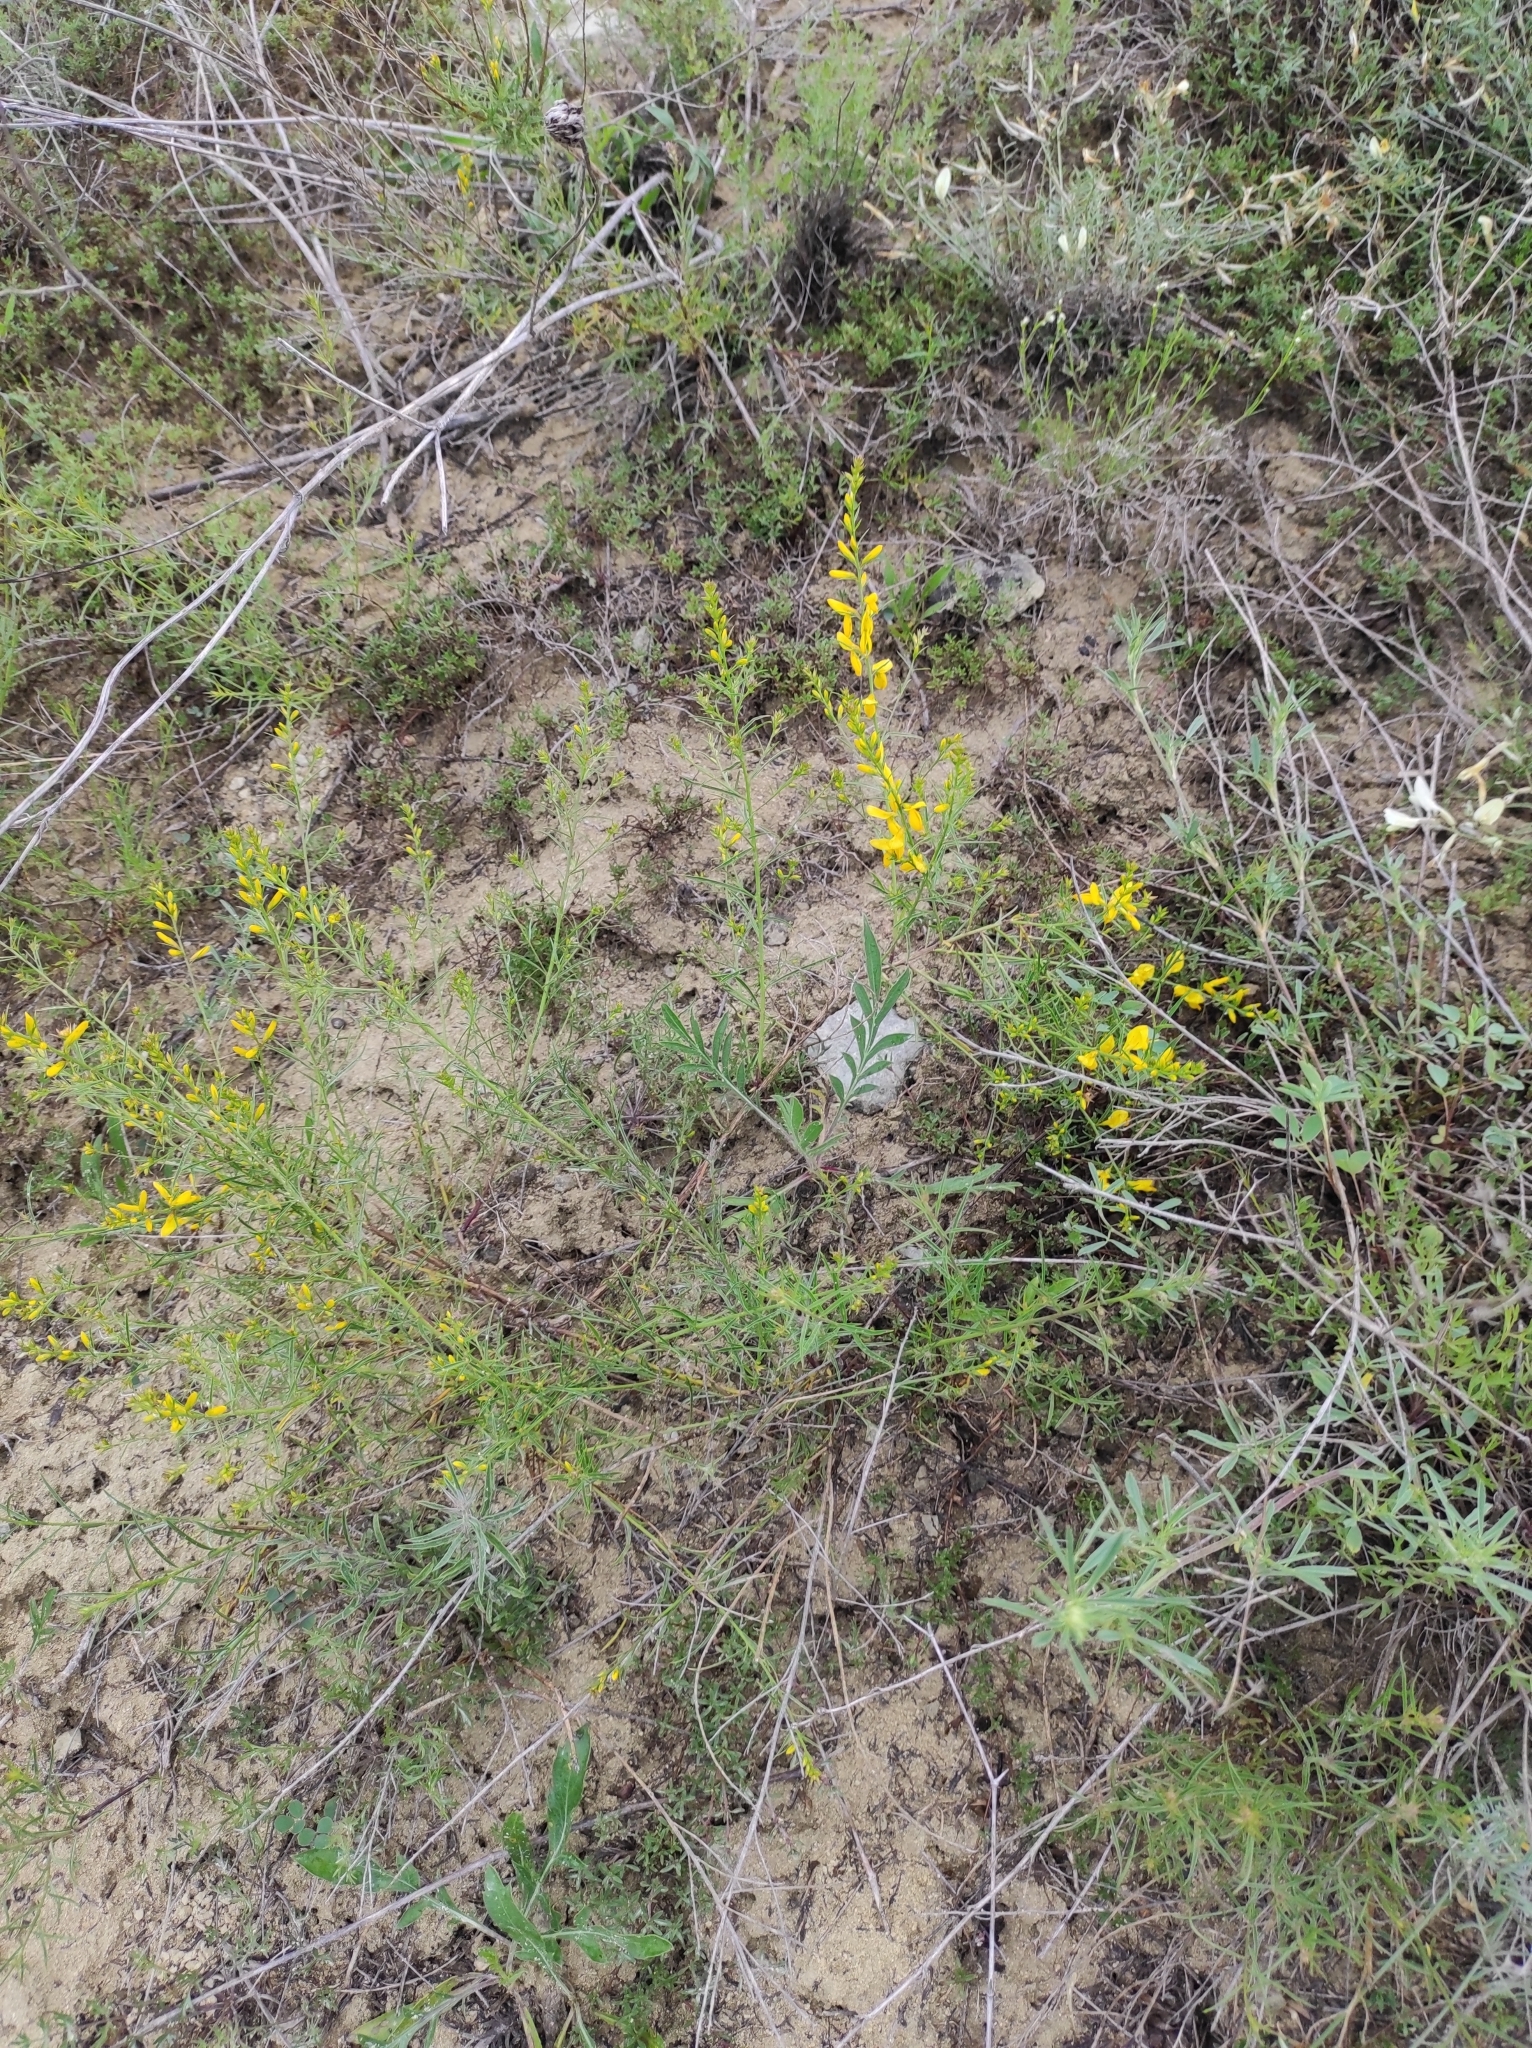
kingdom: Plantae
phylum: Tracheophyta
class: Magnoliopsida
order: Fabales
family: Fabaceae
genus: Genista
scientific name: Genista tinctoria
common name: Dyer's greenweed
